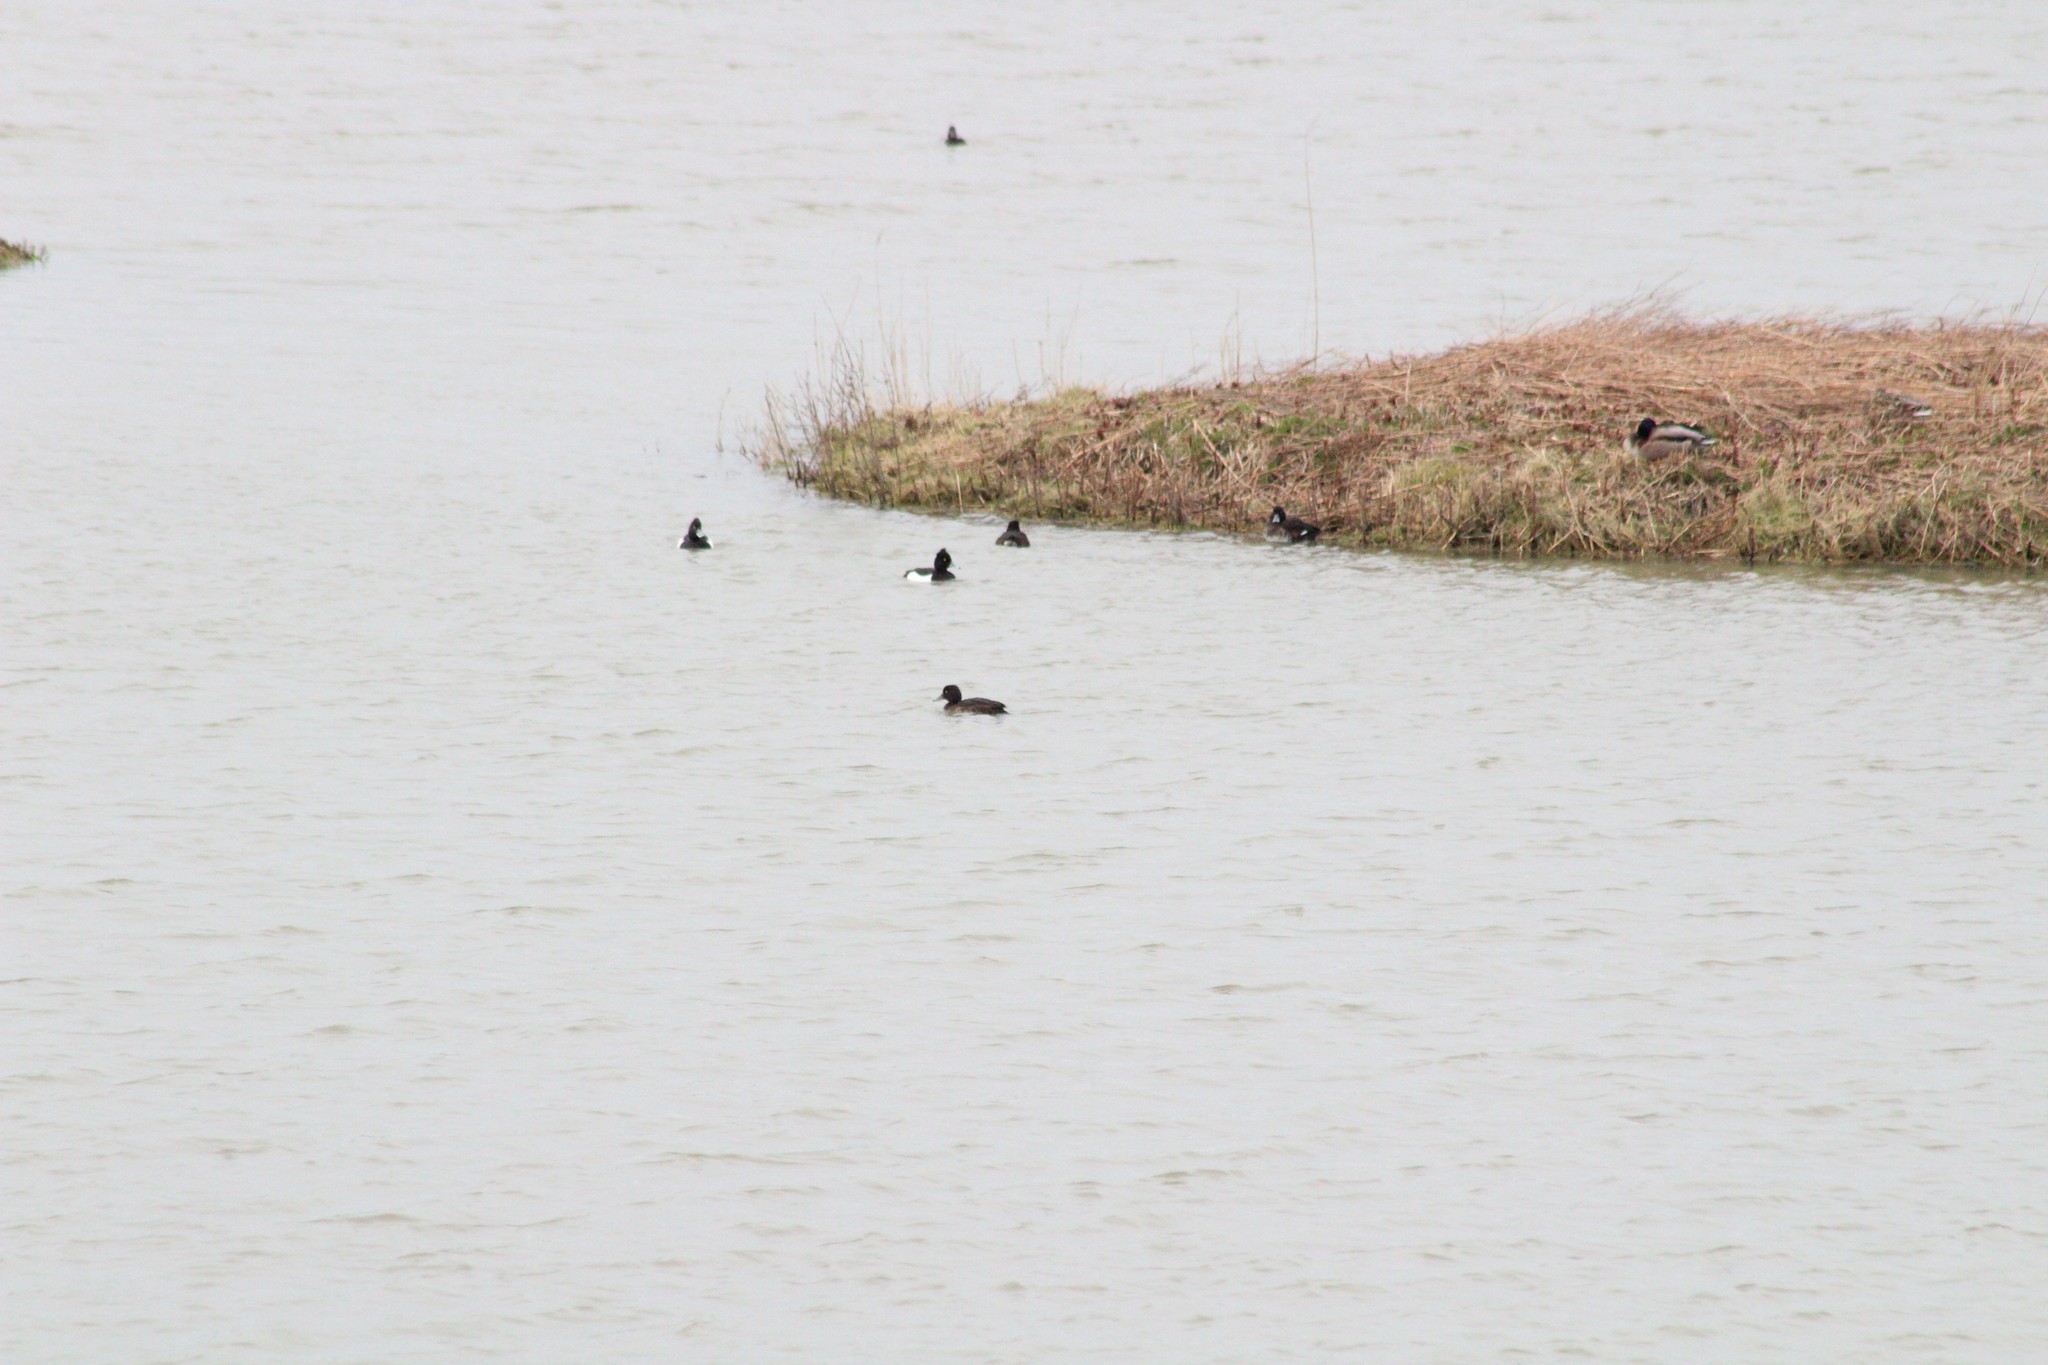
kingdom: Animalia
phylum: Chordata
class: Aves
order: Anseriformes
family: Anatidae
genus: Aythya
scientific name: Aythya fuligula
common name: Tufted duck
